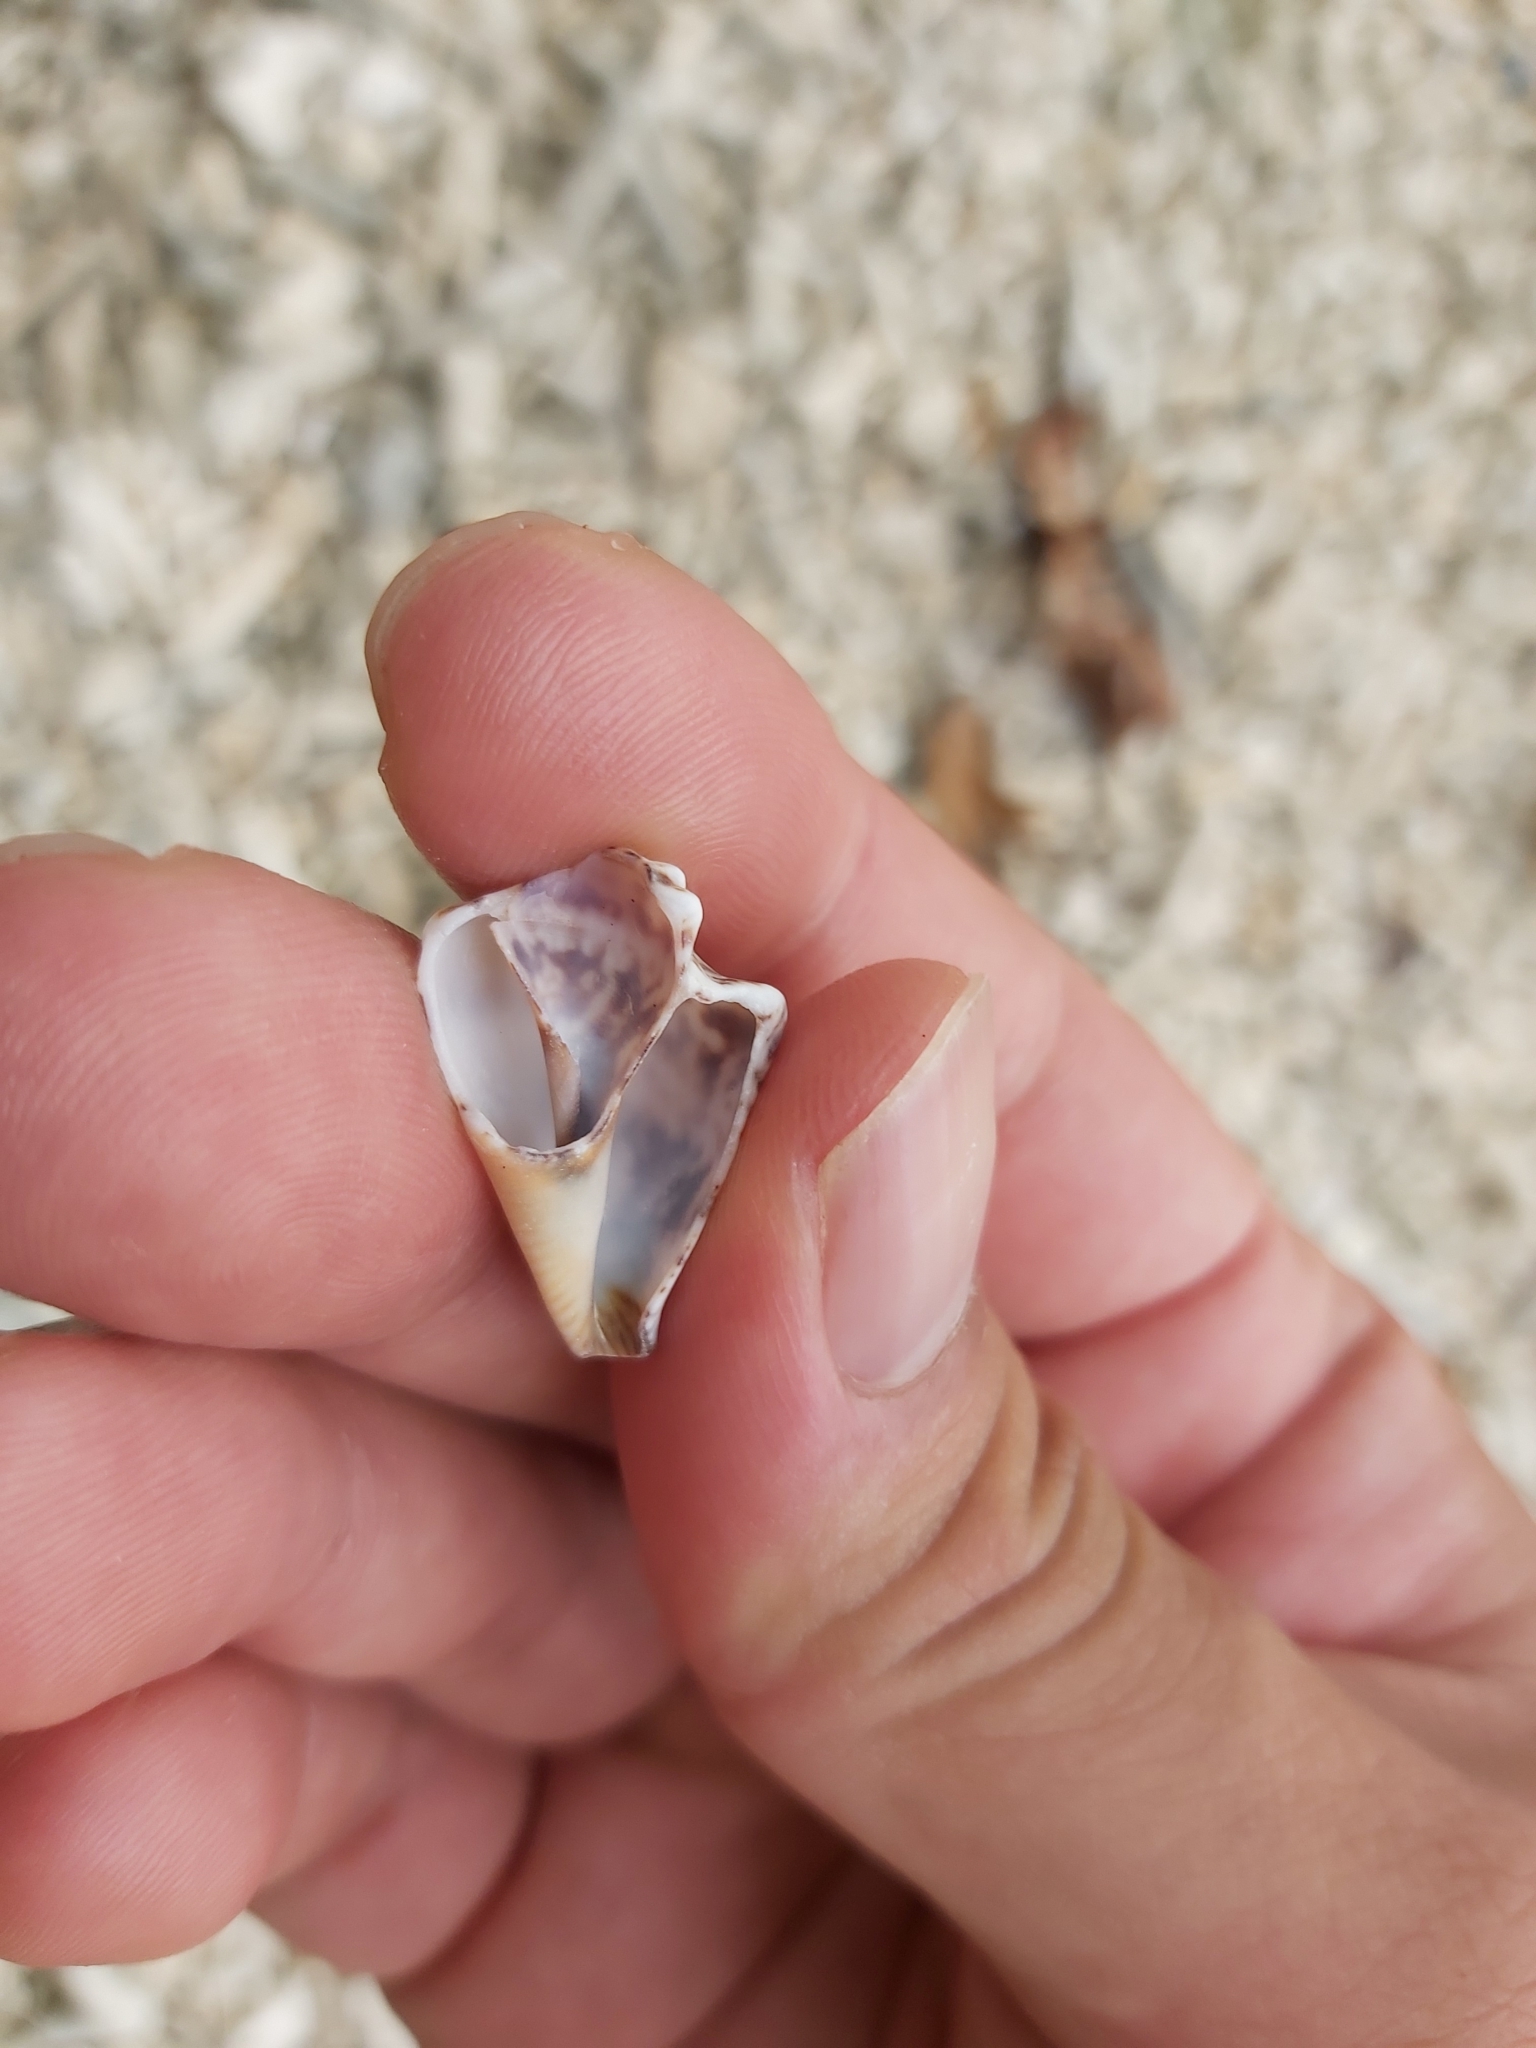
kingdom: Animalia
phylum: Mollusca
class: Gastropoda
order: Littorinimorpha
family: Strombidae
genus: Canarium
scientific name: Canarium labiatum
